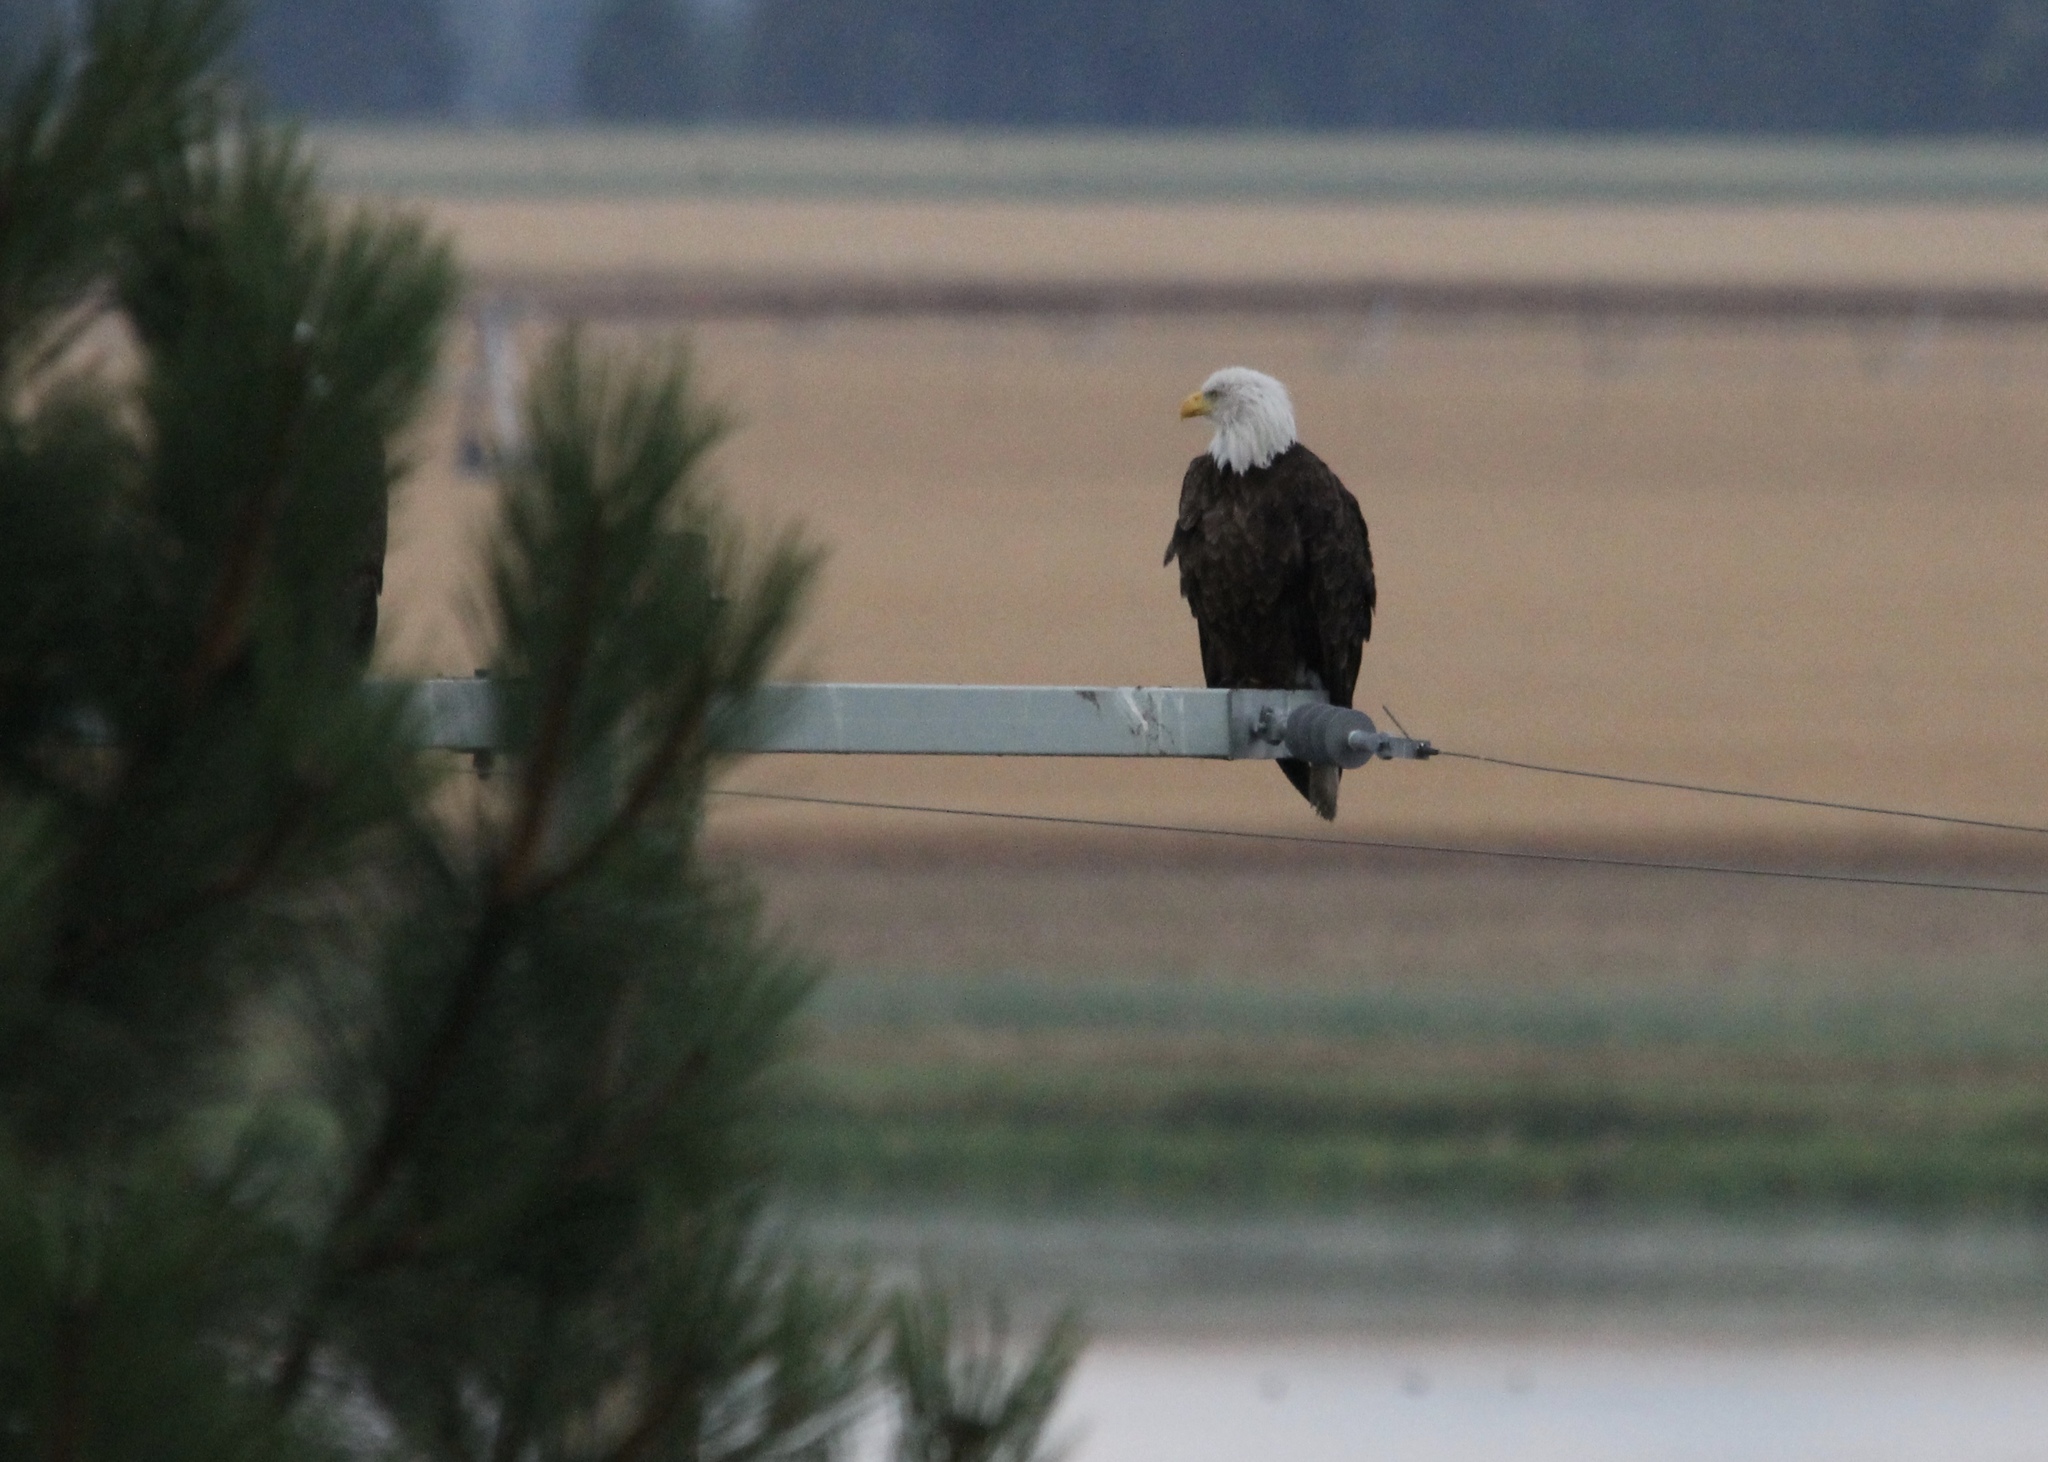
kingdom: Animalia
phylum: Chordata
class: Aves
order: Accipitriformes
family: Accipitridae
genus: Haliaeetus
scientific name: Haliaeetus leucocephalus
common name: Bald eagle
